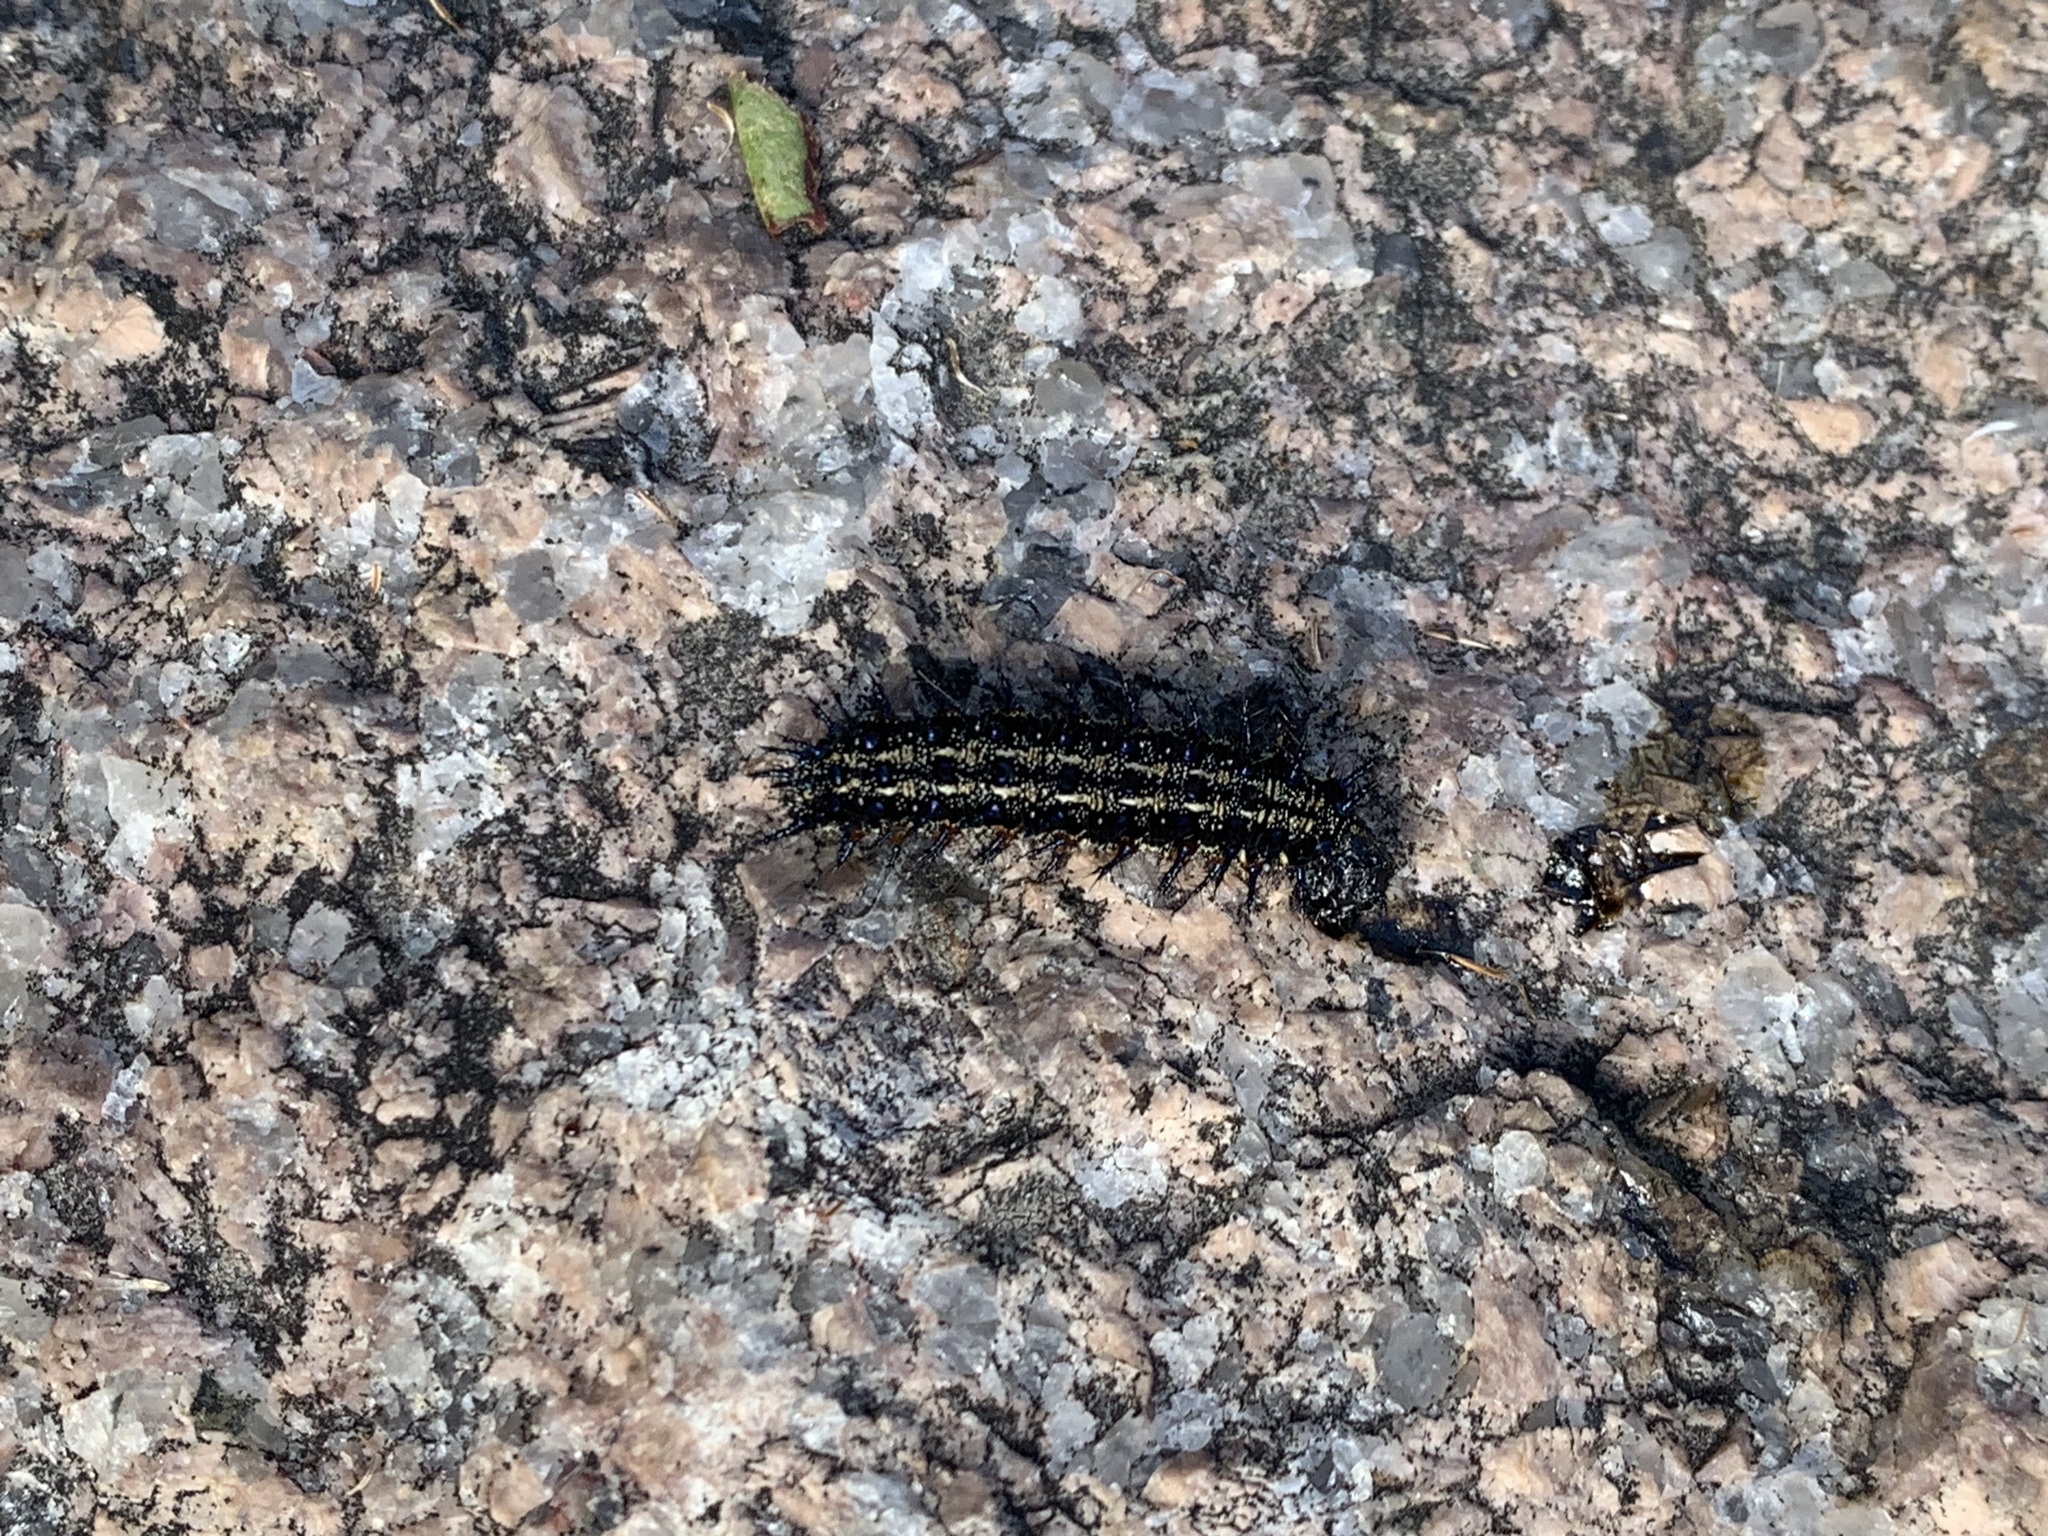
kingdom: Animalia
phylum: Arthropoda
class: Insecta
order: Lepidoptera
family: Nymphalidae
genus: Junonia
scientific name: Junonia coenia
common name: Common buckeye
